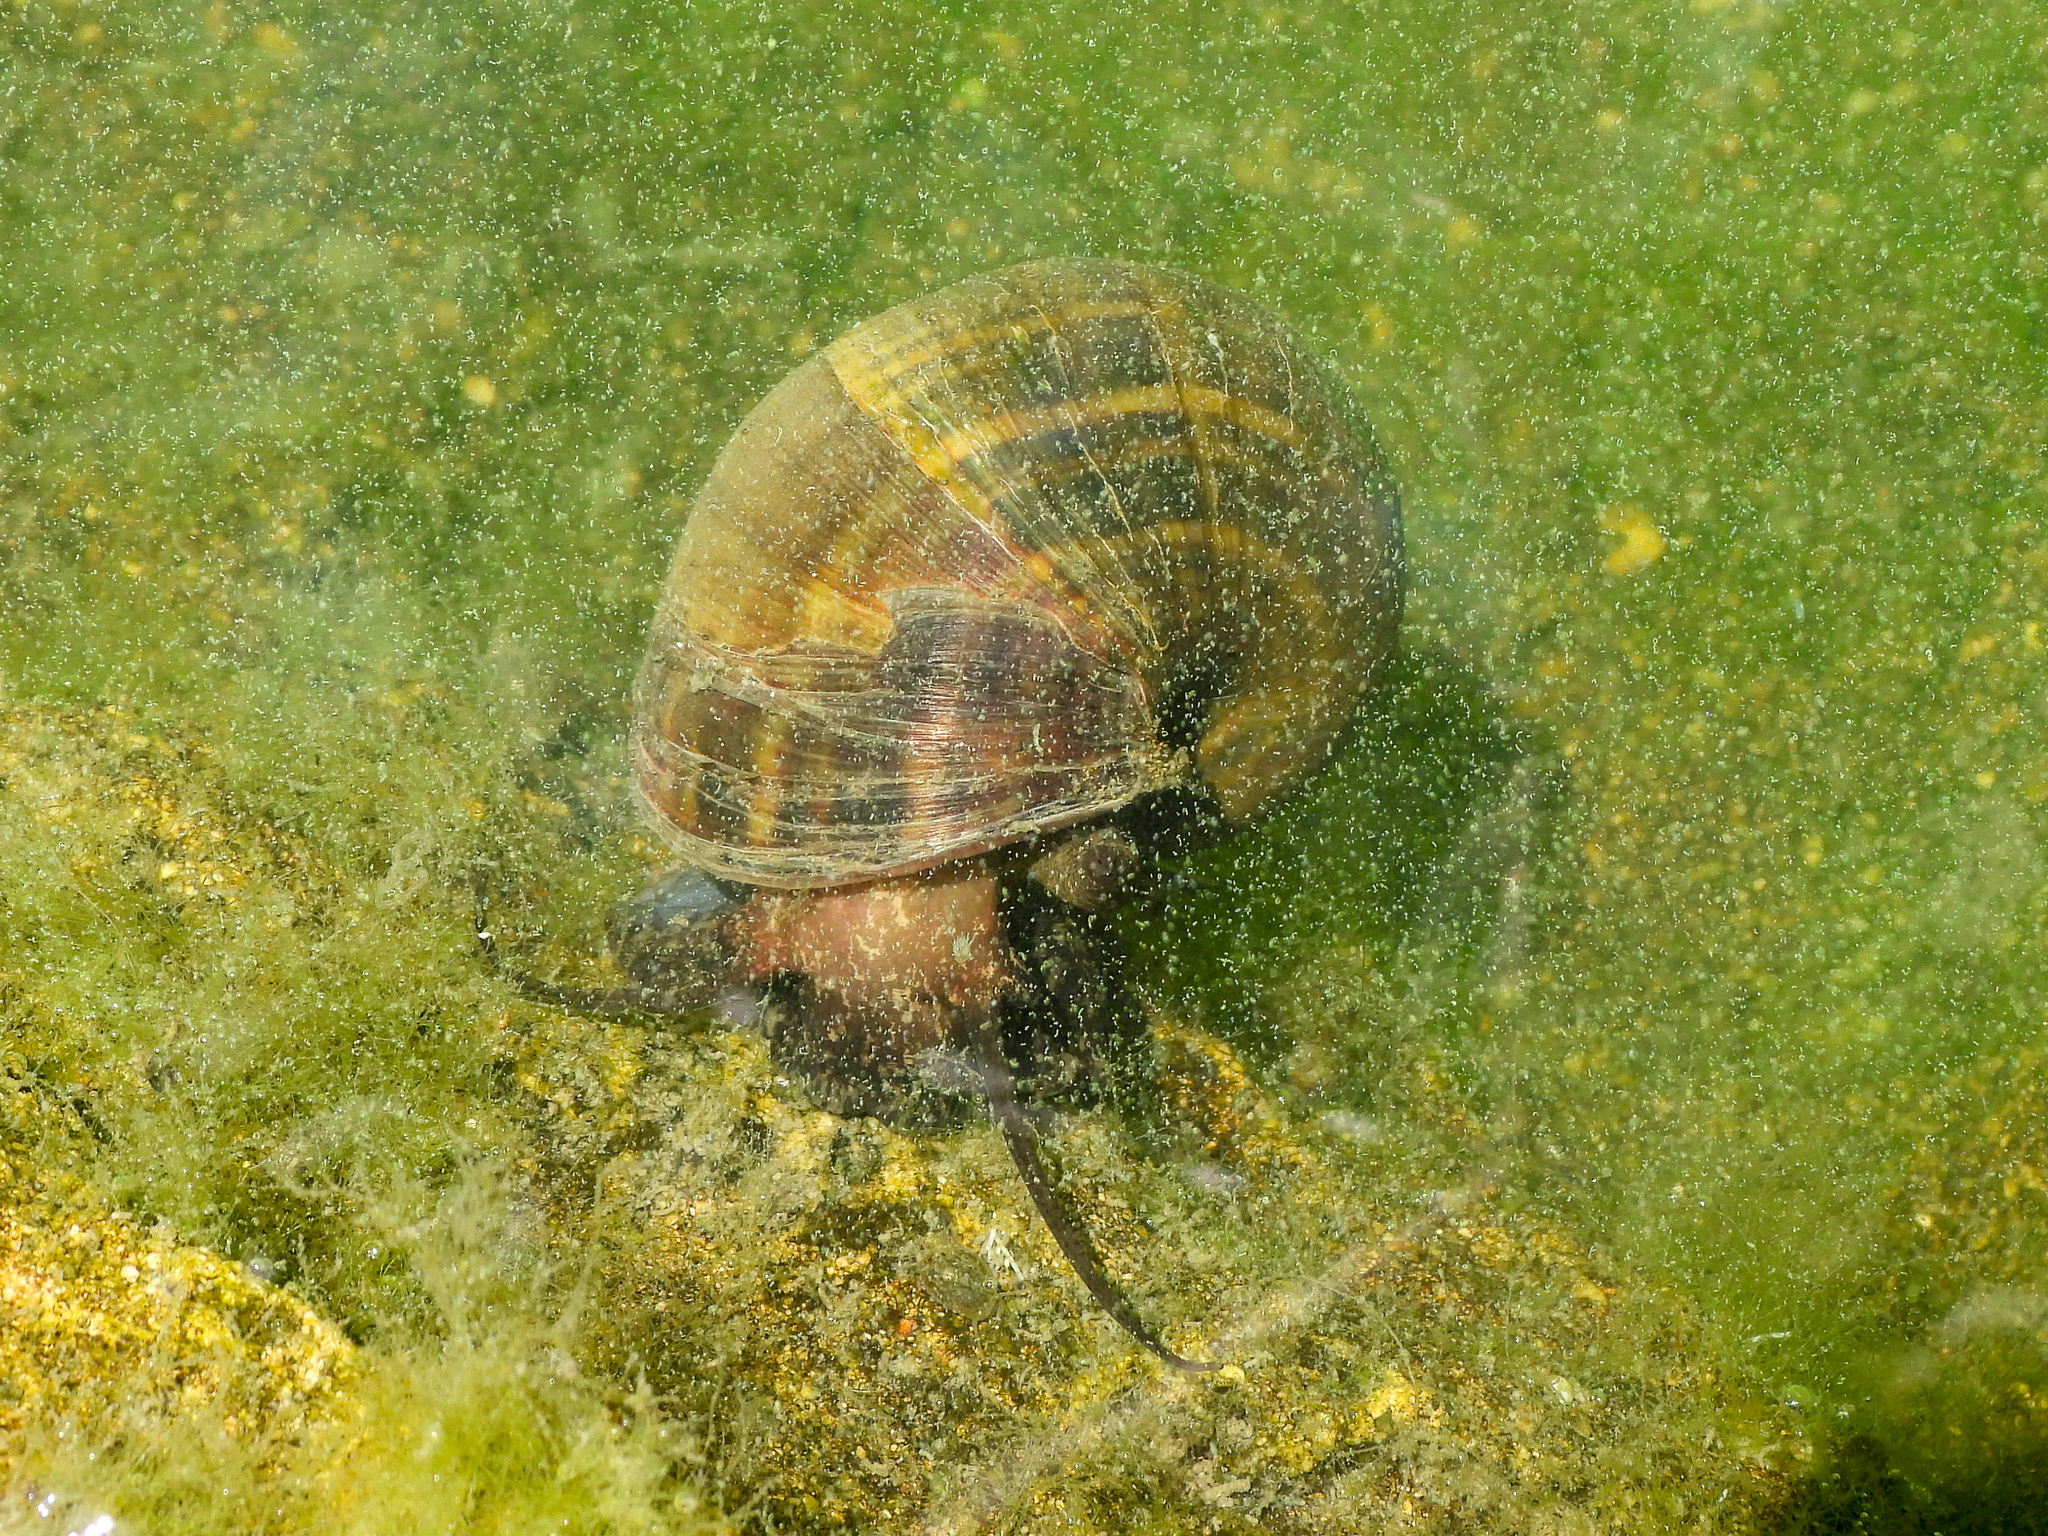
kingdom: Animalia
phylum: Mollusca
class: Gastropoda
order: Architaenioglossa
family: Ampullariidae
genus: Pomacea
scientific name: Pomacea canaliculata
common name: Channeled applesnail
